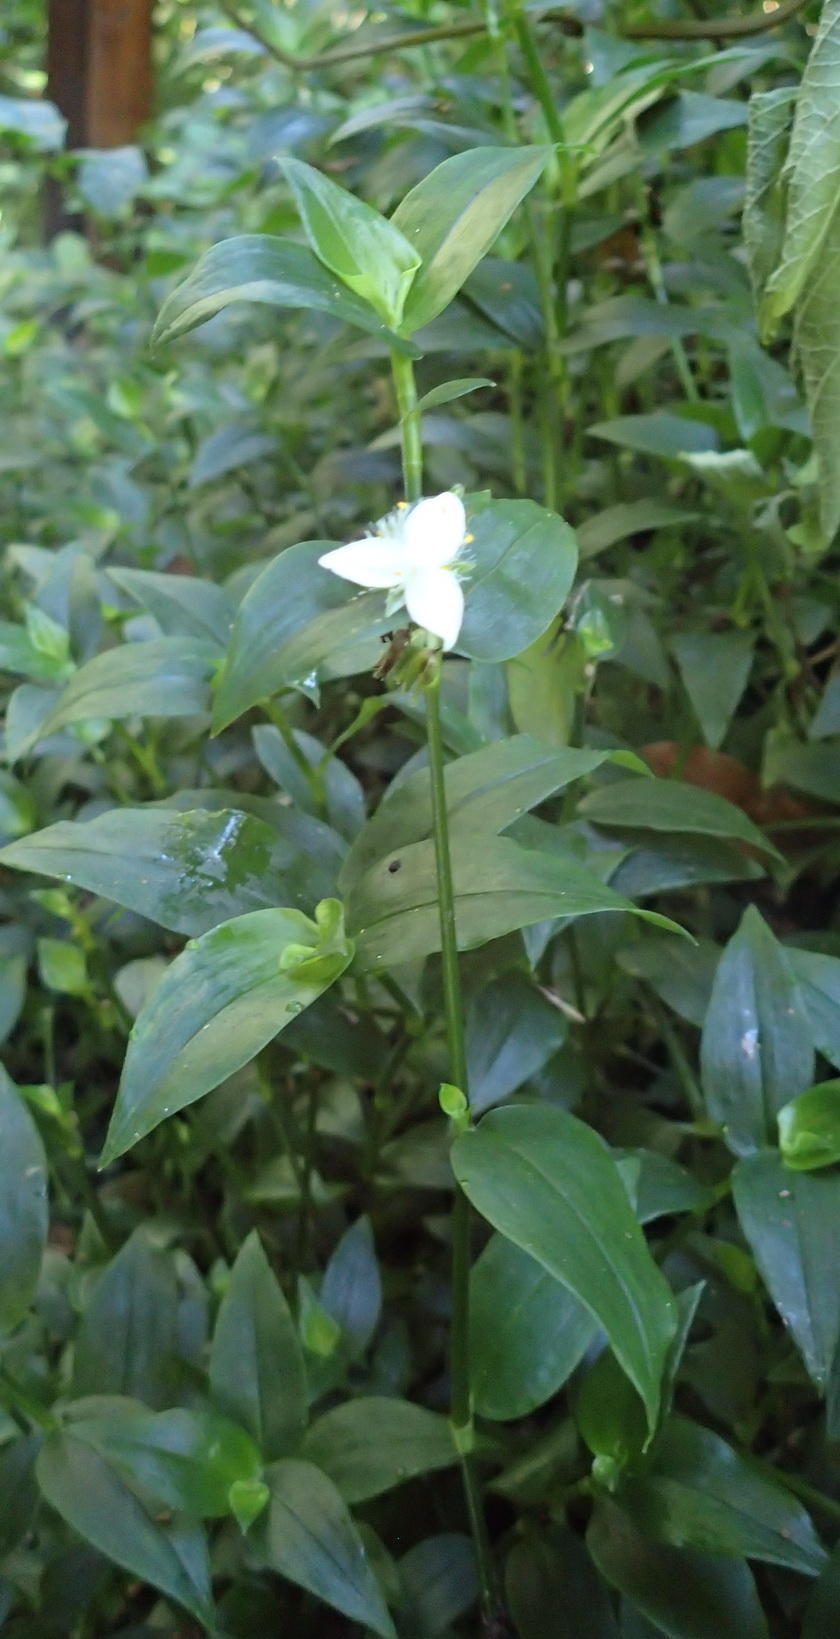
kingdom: Plantae
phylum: Tracheophyta
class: Liliopsida
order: Commelinales
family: Commelinaceae
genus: Tradescantia
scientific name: Tradescantia fluminensis
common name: Wandering-jew
